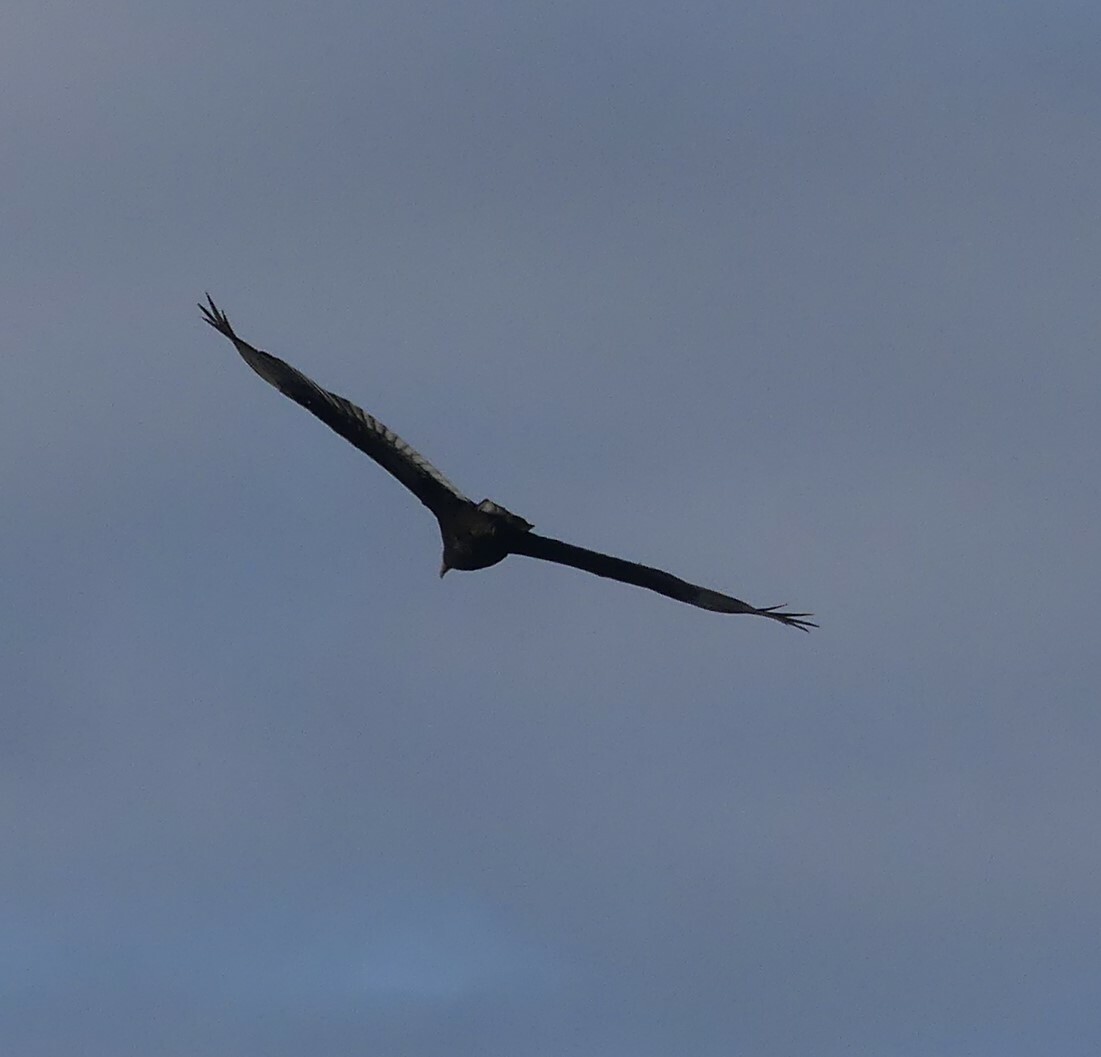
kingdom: Animalia
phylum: Chordata
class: Aves
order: Accipitriformes
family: Cathartidae
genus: Cathartes
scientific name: Cathartes aura
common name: Turkey vulture
